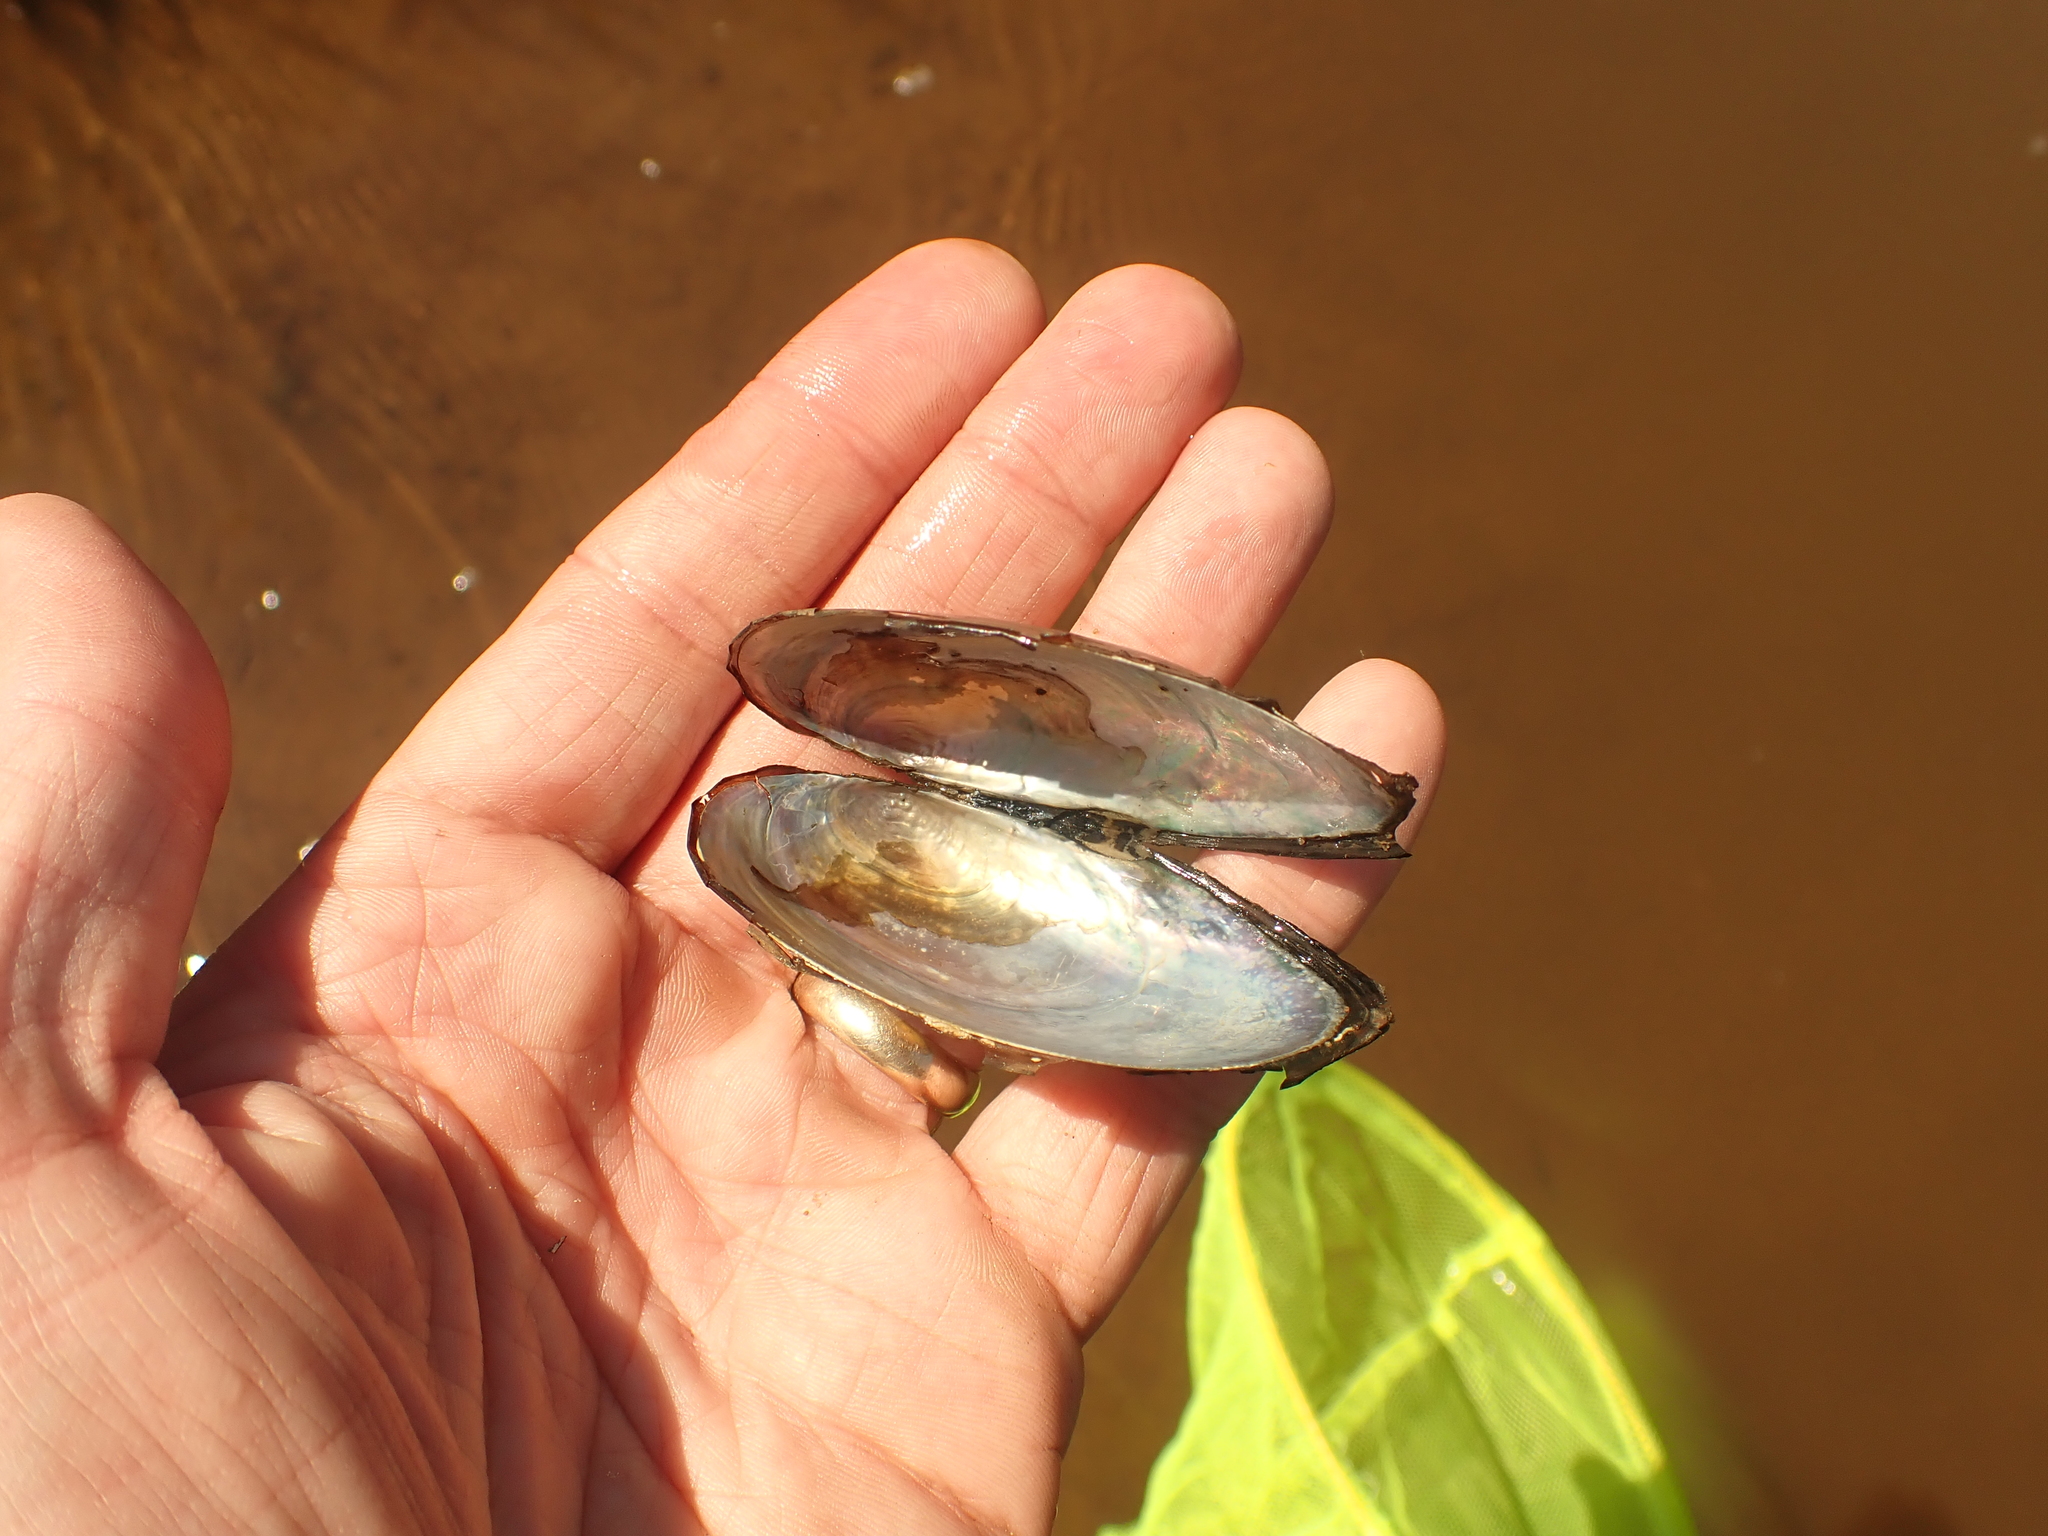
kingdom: Animalia
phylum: Mollusca
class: Bivalvia
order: Unionida
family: Unionidae
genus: Pyganodon
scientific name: Pyganodon cataracta
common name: Eastern floater
